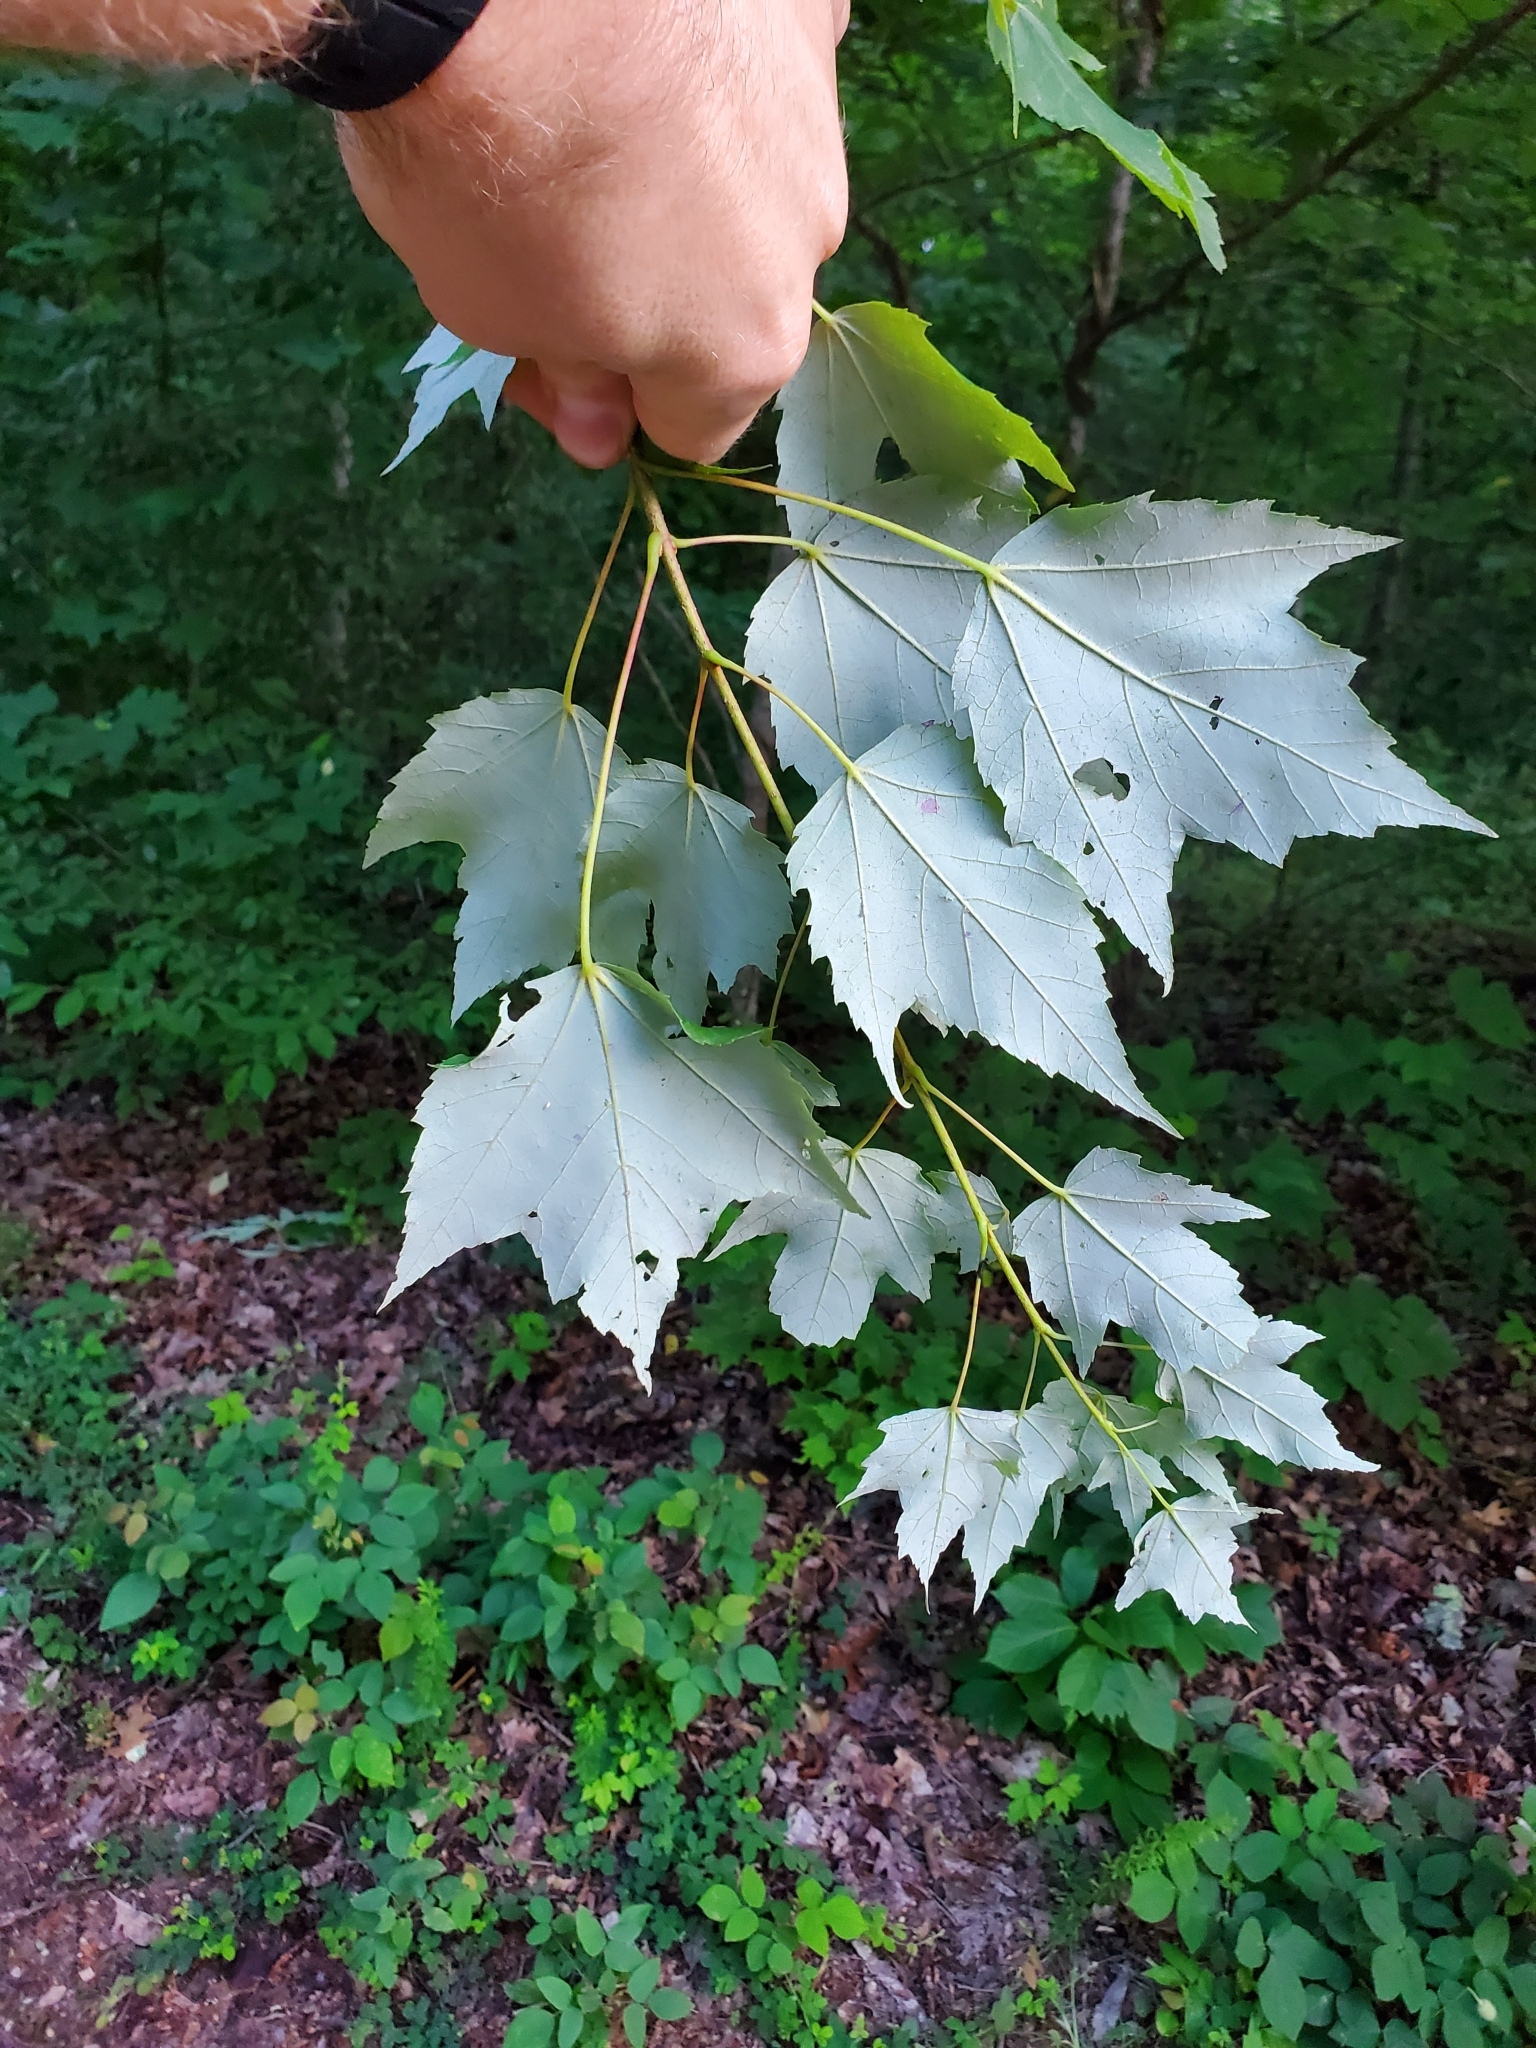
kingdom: Plantae
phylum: Tracheophyta
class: Magnoliopsida
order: Sapindales
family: Sapindaceae
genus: Acer
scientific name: Acer rubrum
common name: Red maple
